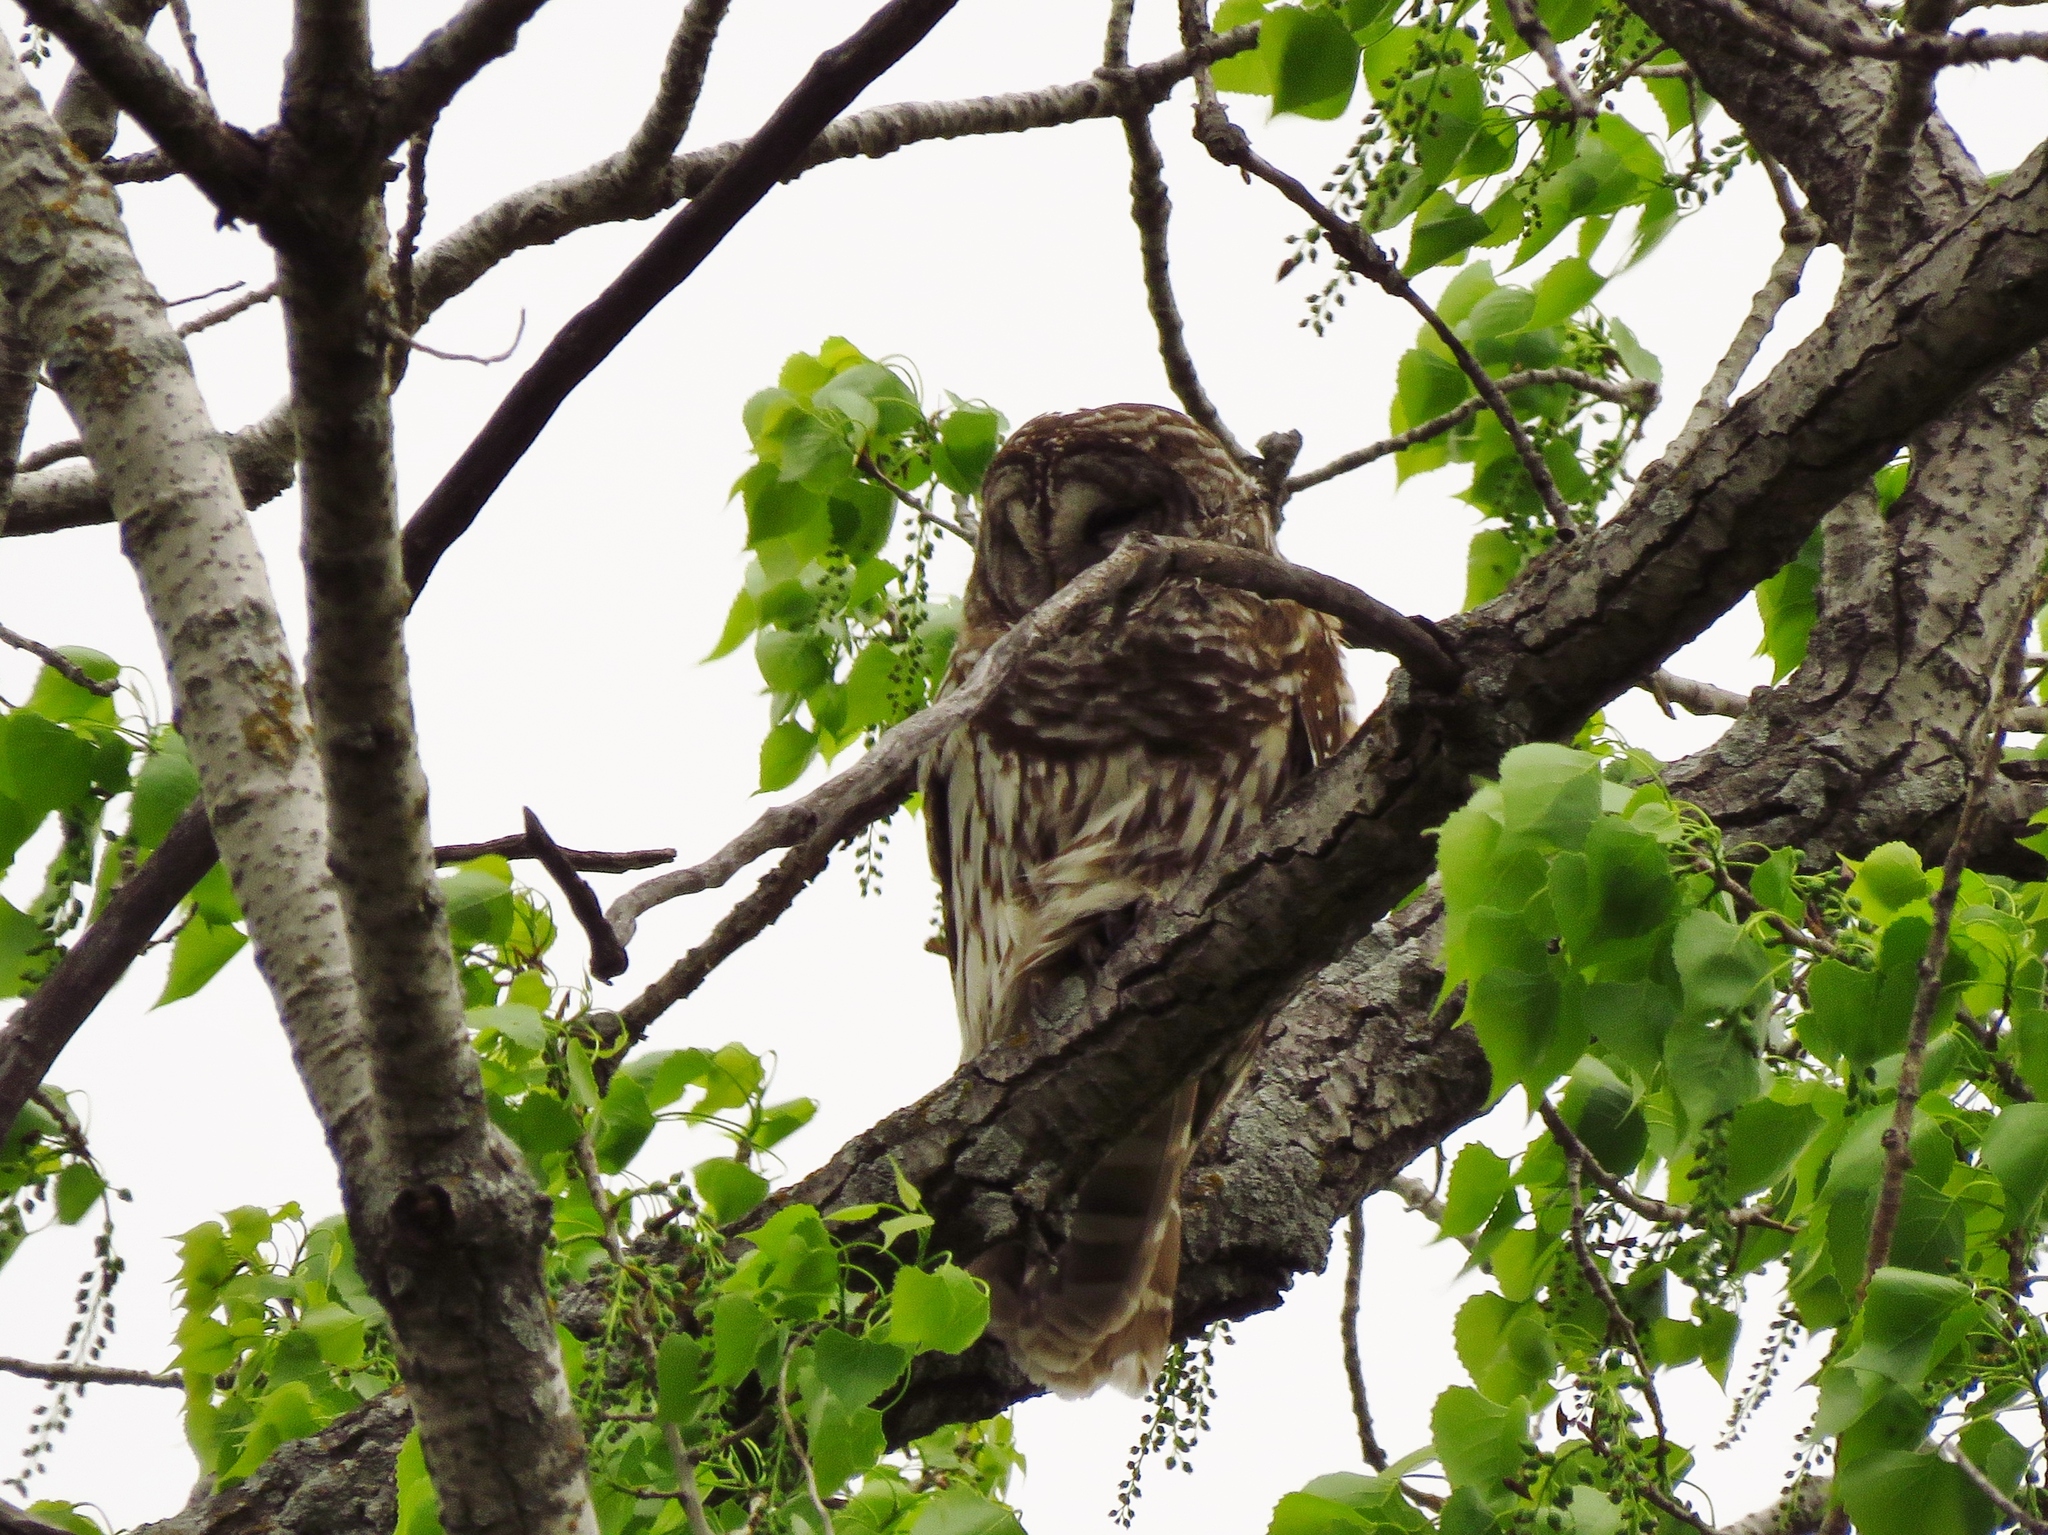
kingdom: Animalia
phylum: Chordata
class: Aves
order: Strigiformes
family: Strigidae
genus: Strix
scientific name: Strix varia
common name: Barred owl
